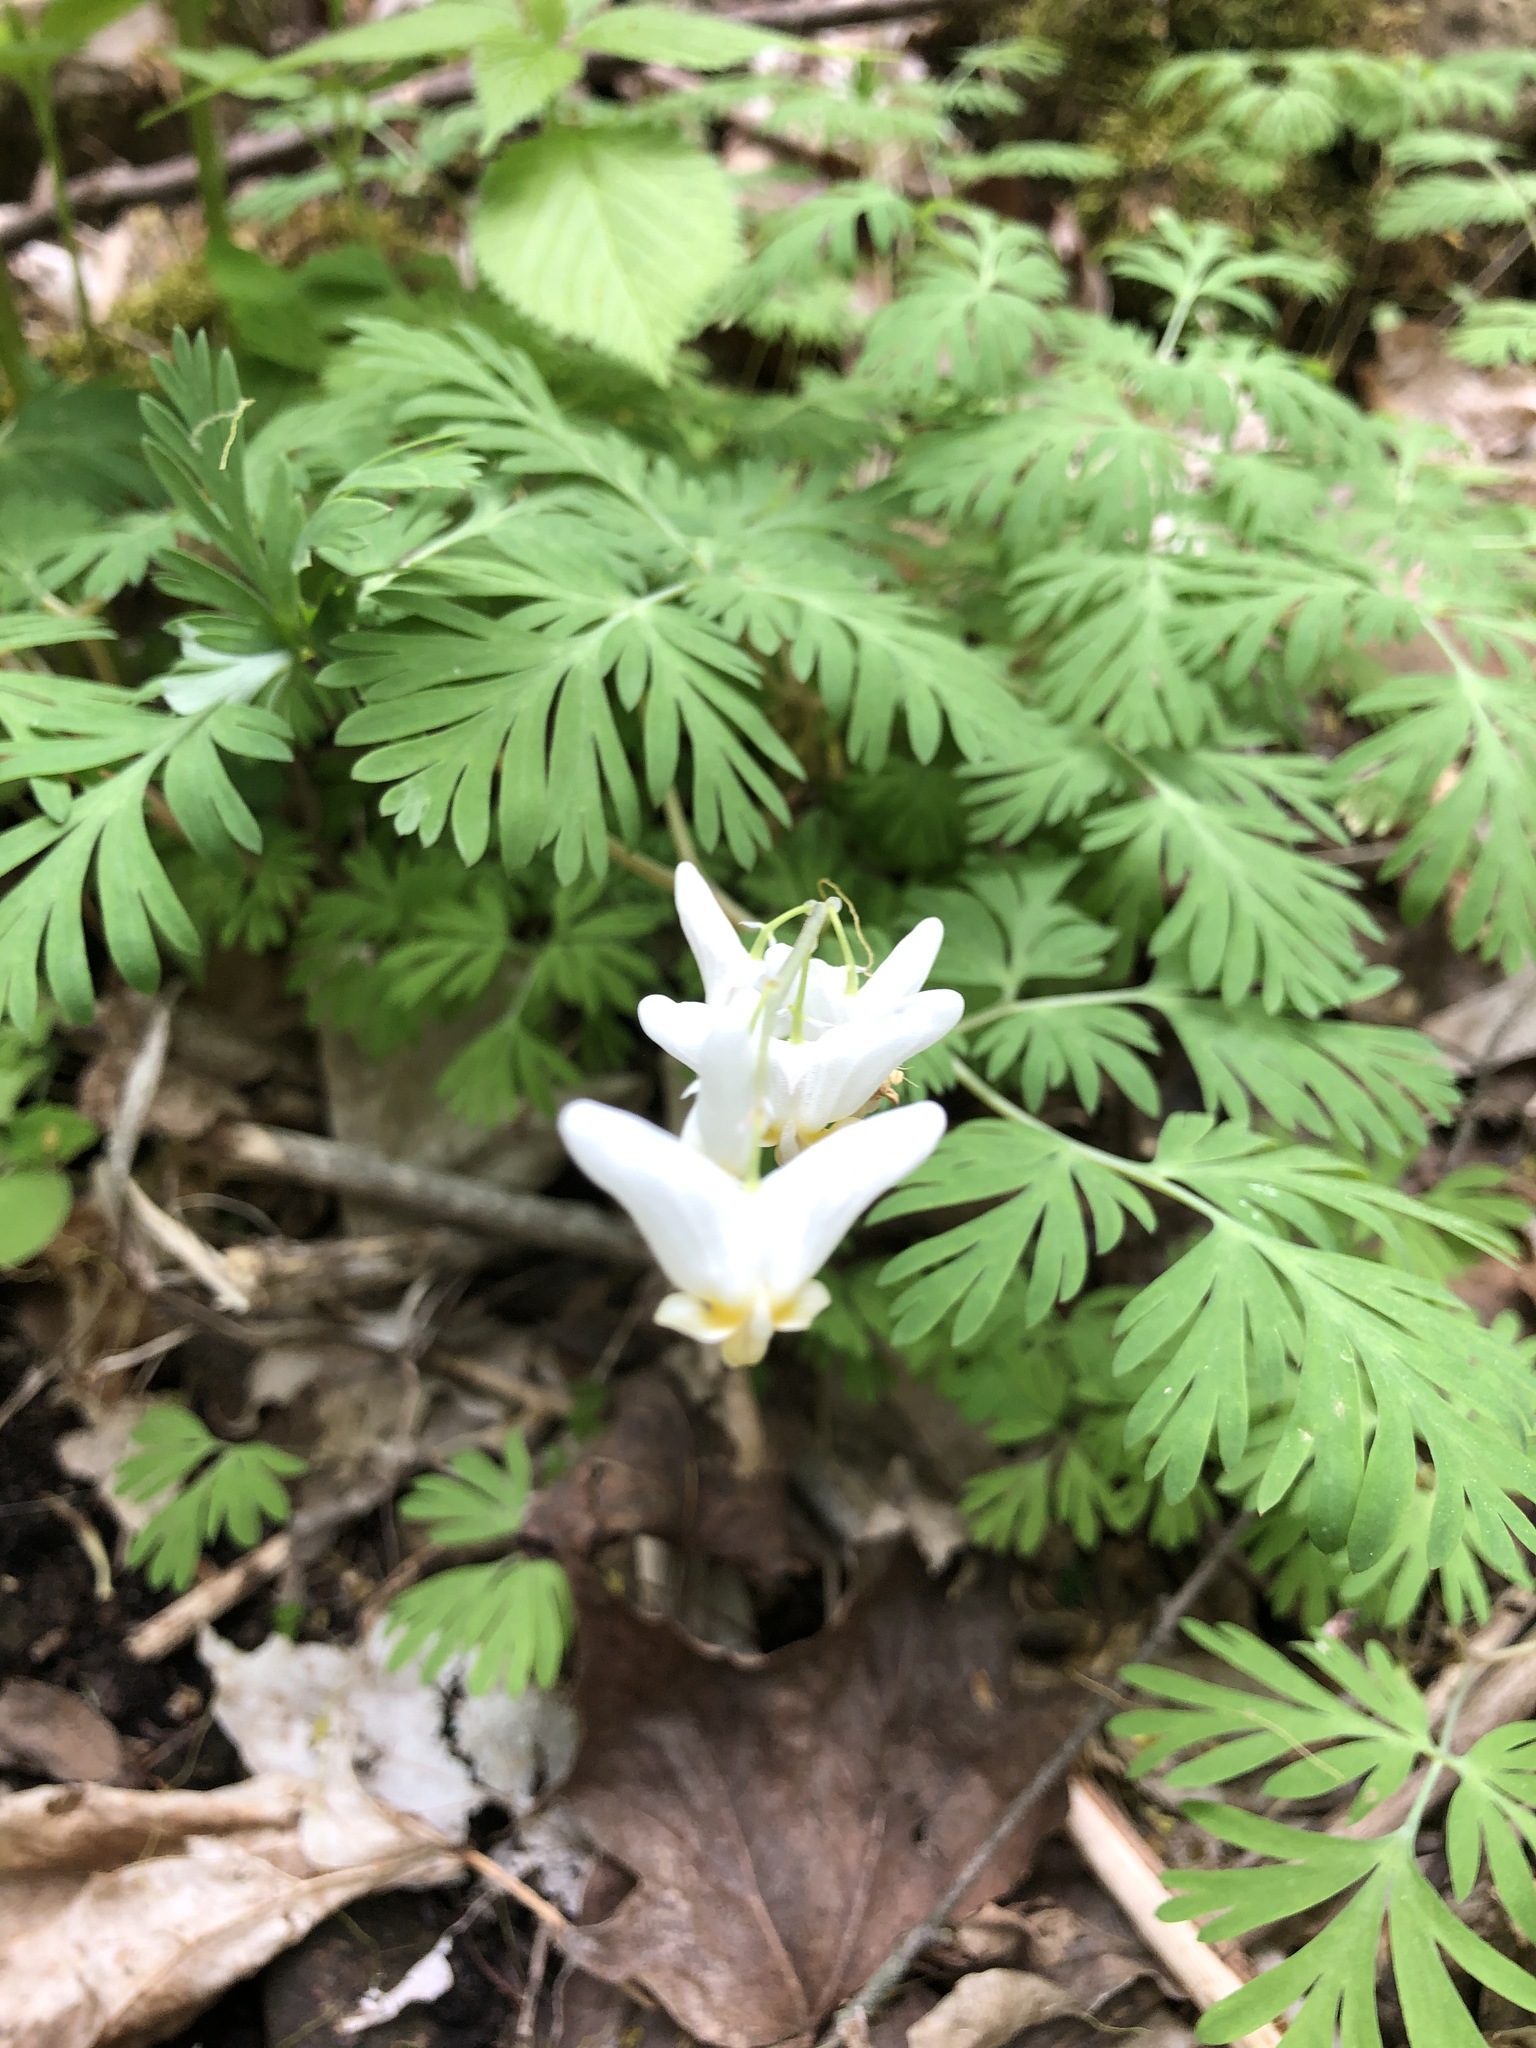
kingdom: Plantae
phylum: Tracheophyta
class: Magnoliopsida
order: Ranunculales
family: Papaveraceae
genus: Dicentra
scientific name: Dicentra cucullaria
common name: Dutchman's breeches
